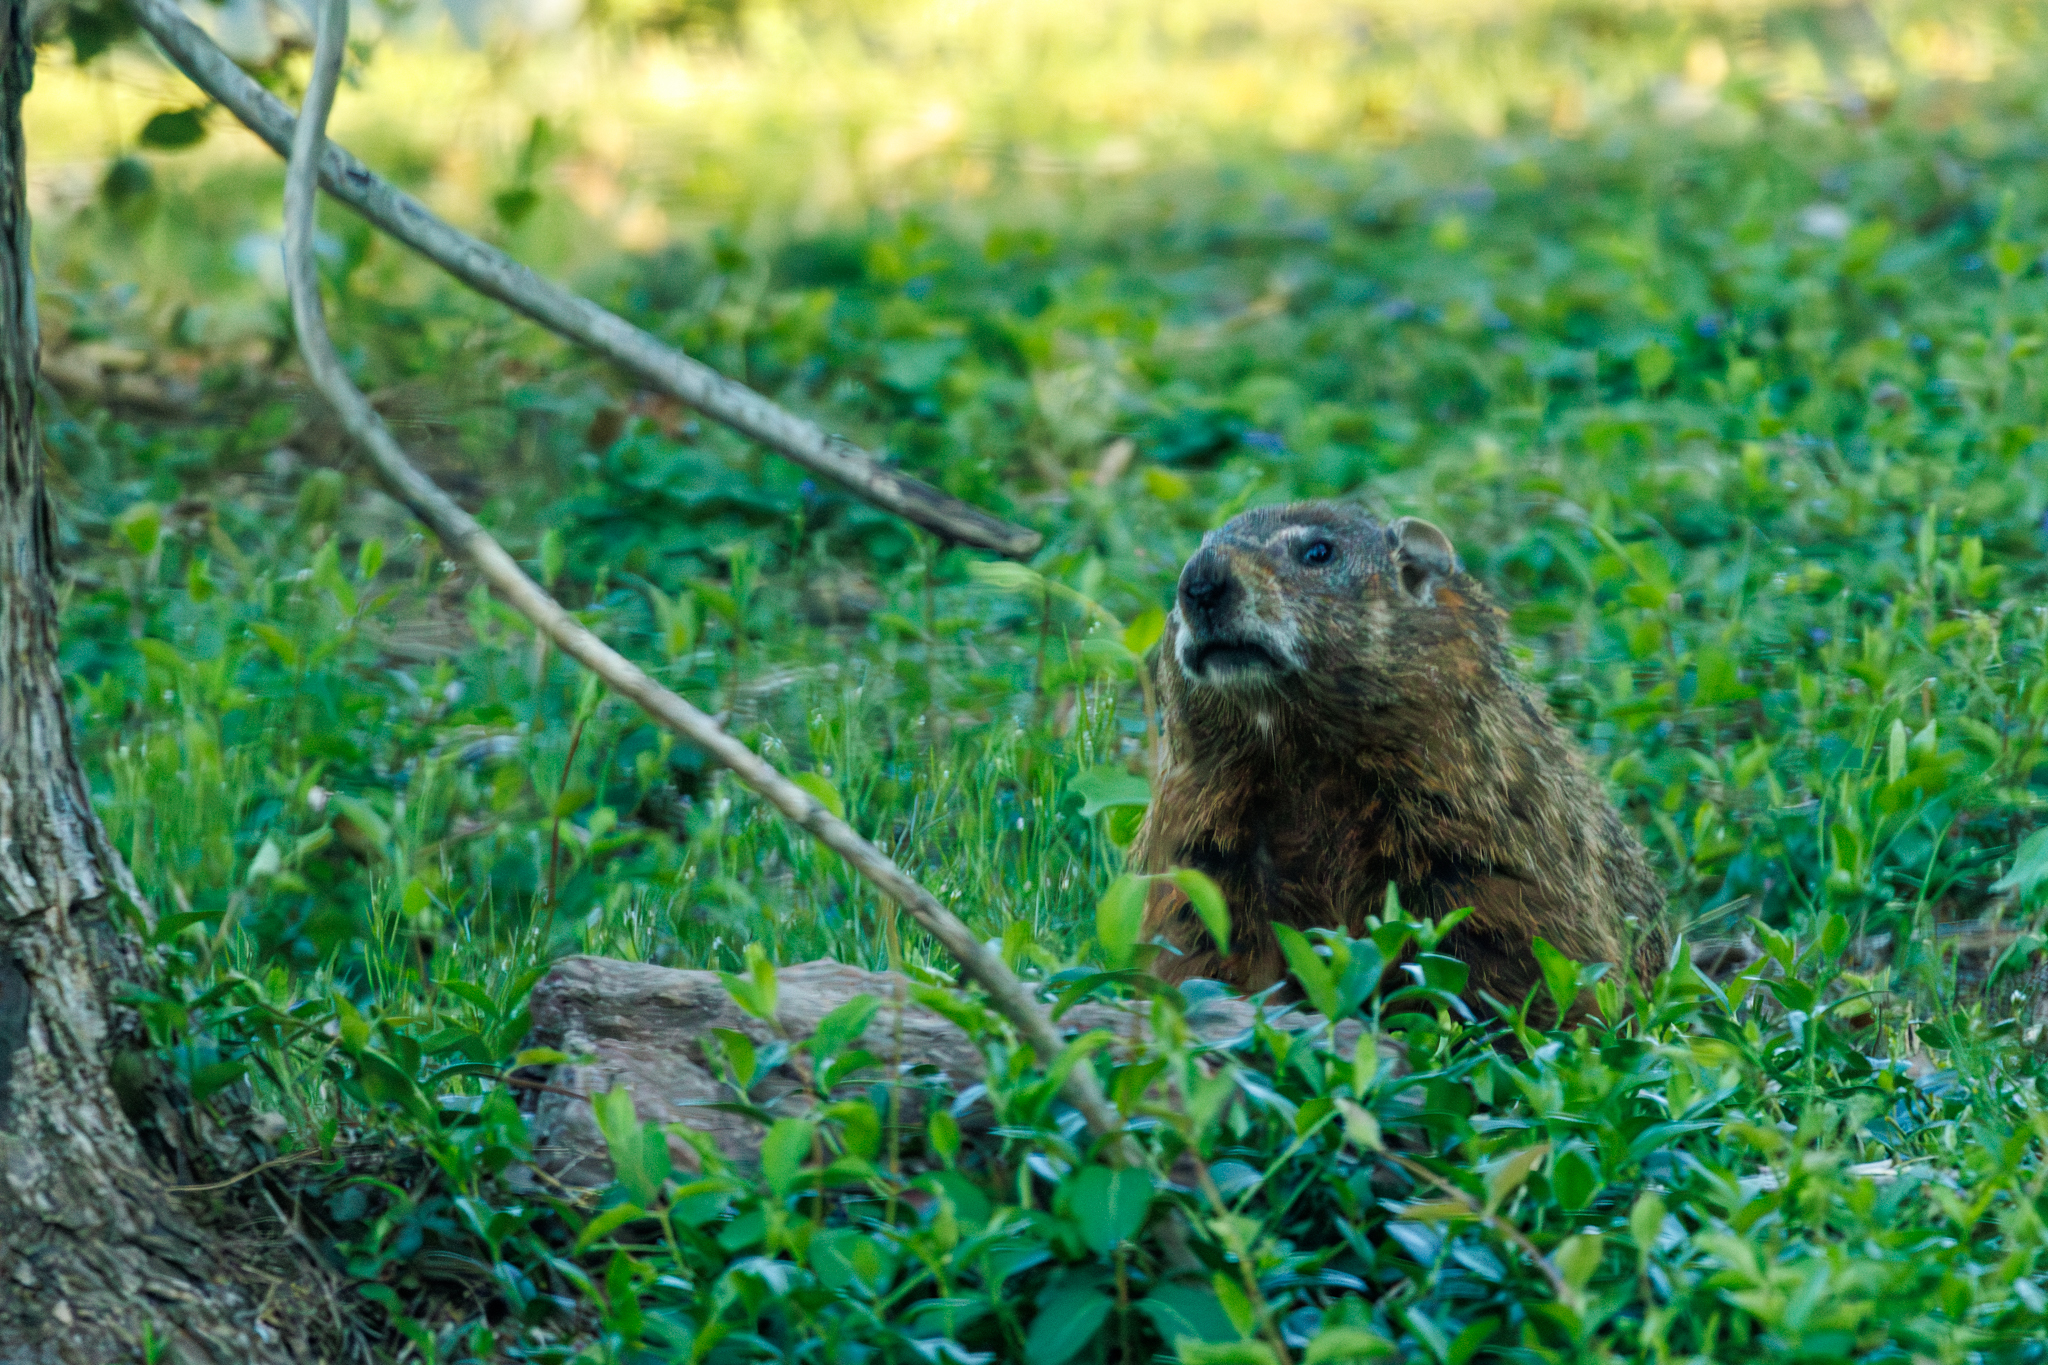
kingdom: Animalia
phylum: Chordata
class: Mammalia
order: Rodentia
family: Sciuridae
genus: Marmota
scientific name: Marmota monax
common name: Groundhog
